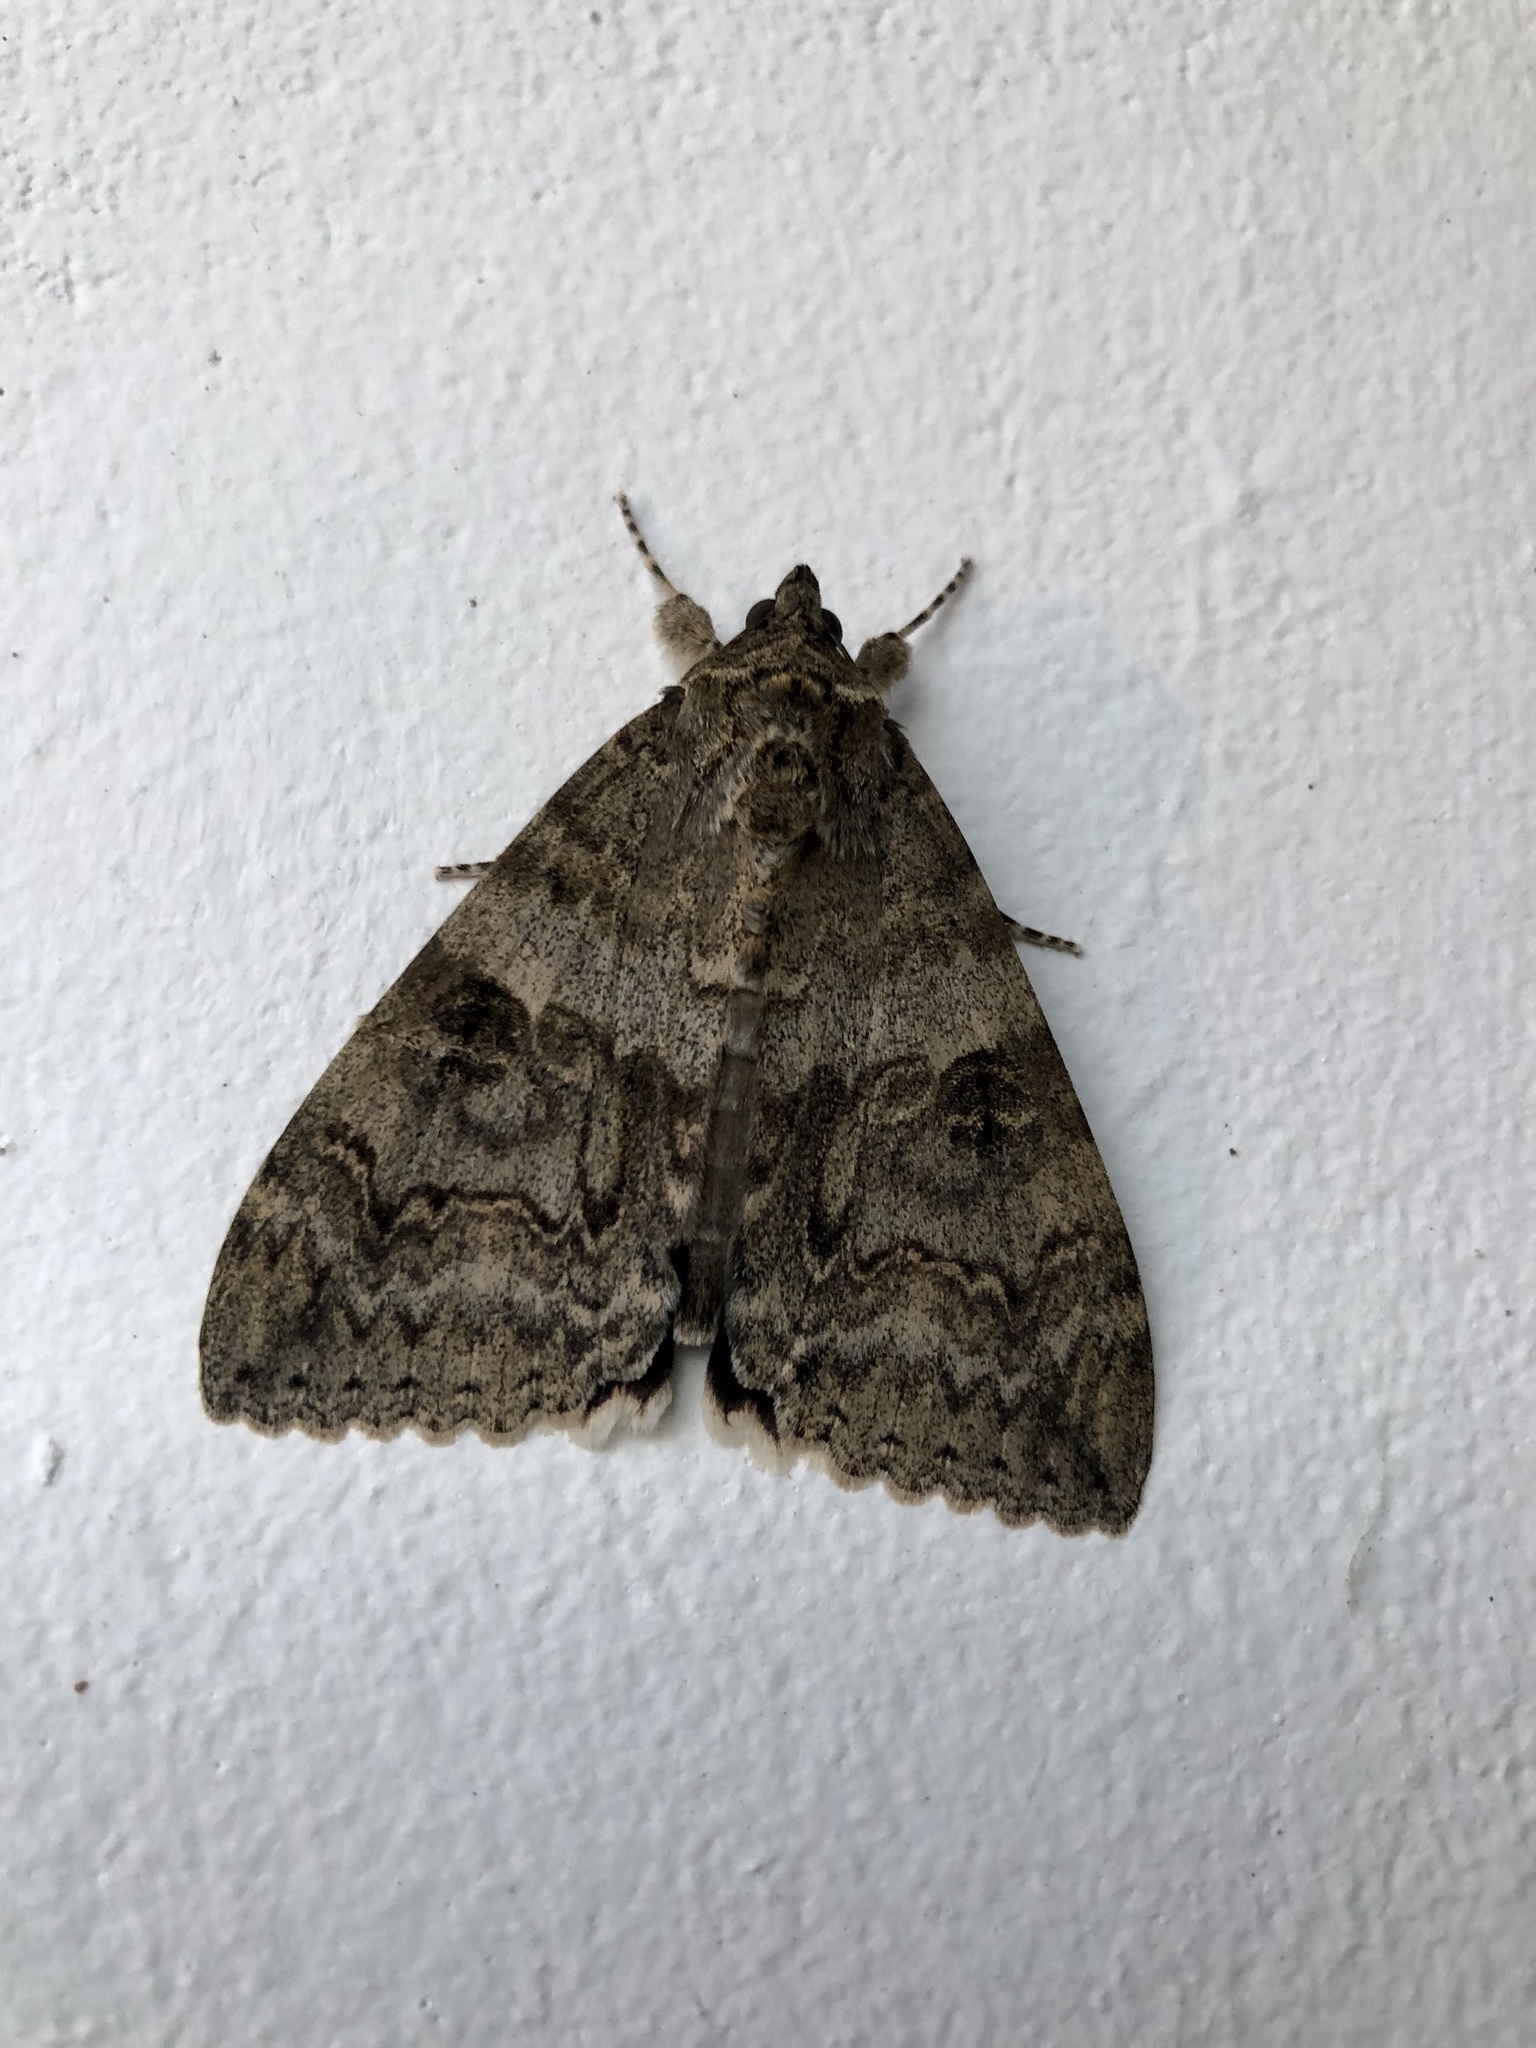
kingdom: Animalia
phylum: Arthropoda
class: Insecta
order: Lepidoptera
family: Erebidae
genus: Catocala
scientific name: Catocala nupta
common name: Red underwing
